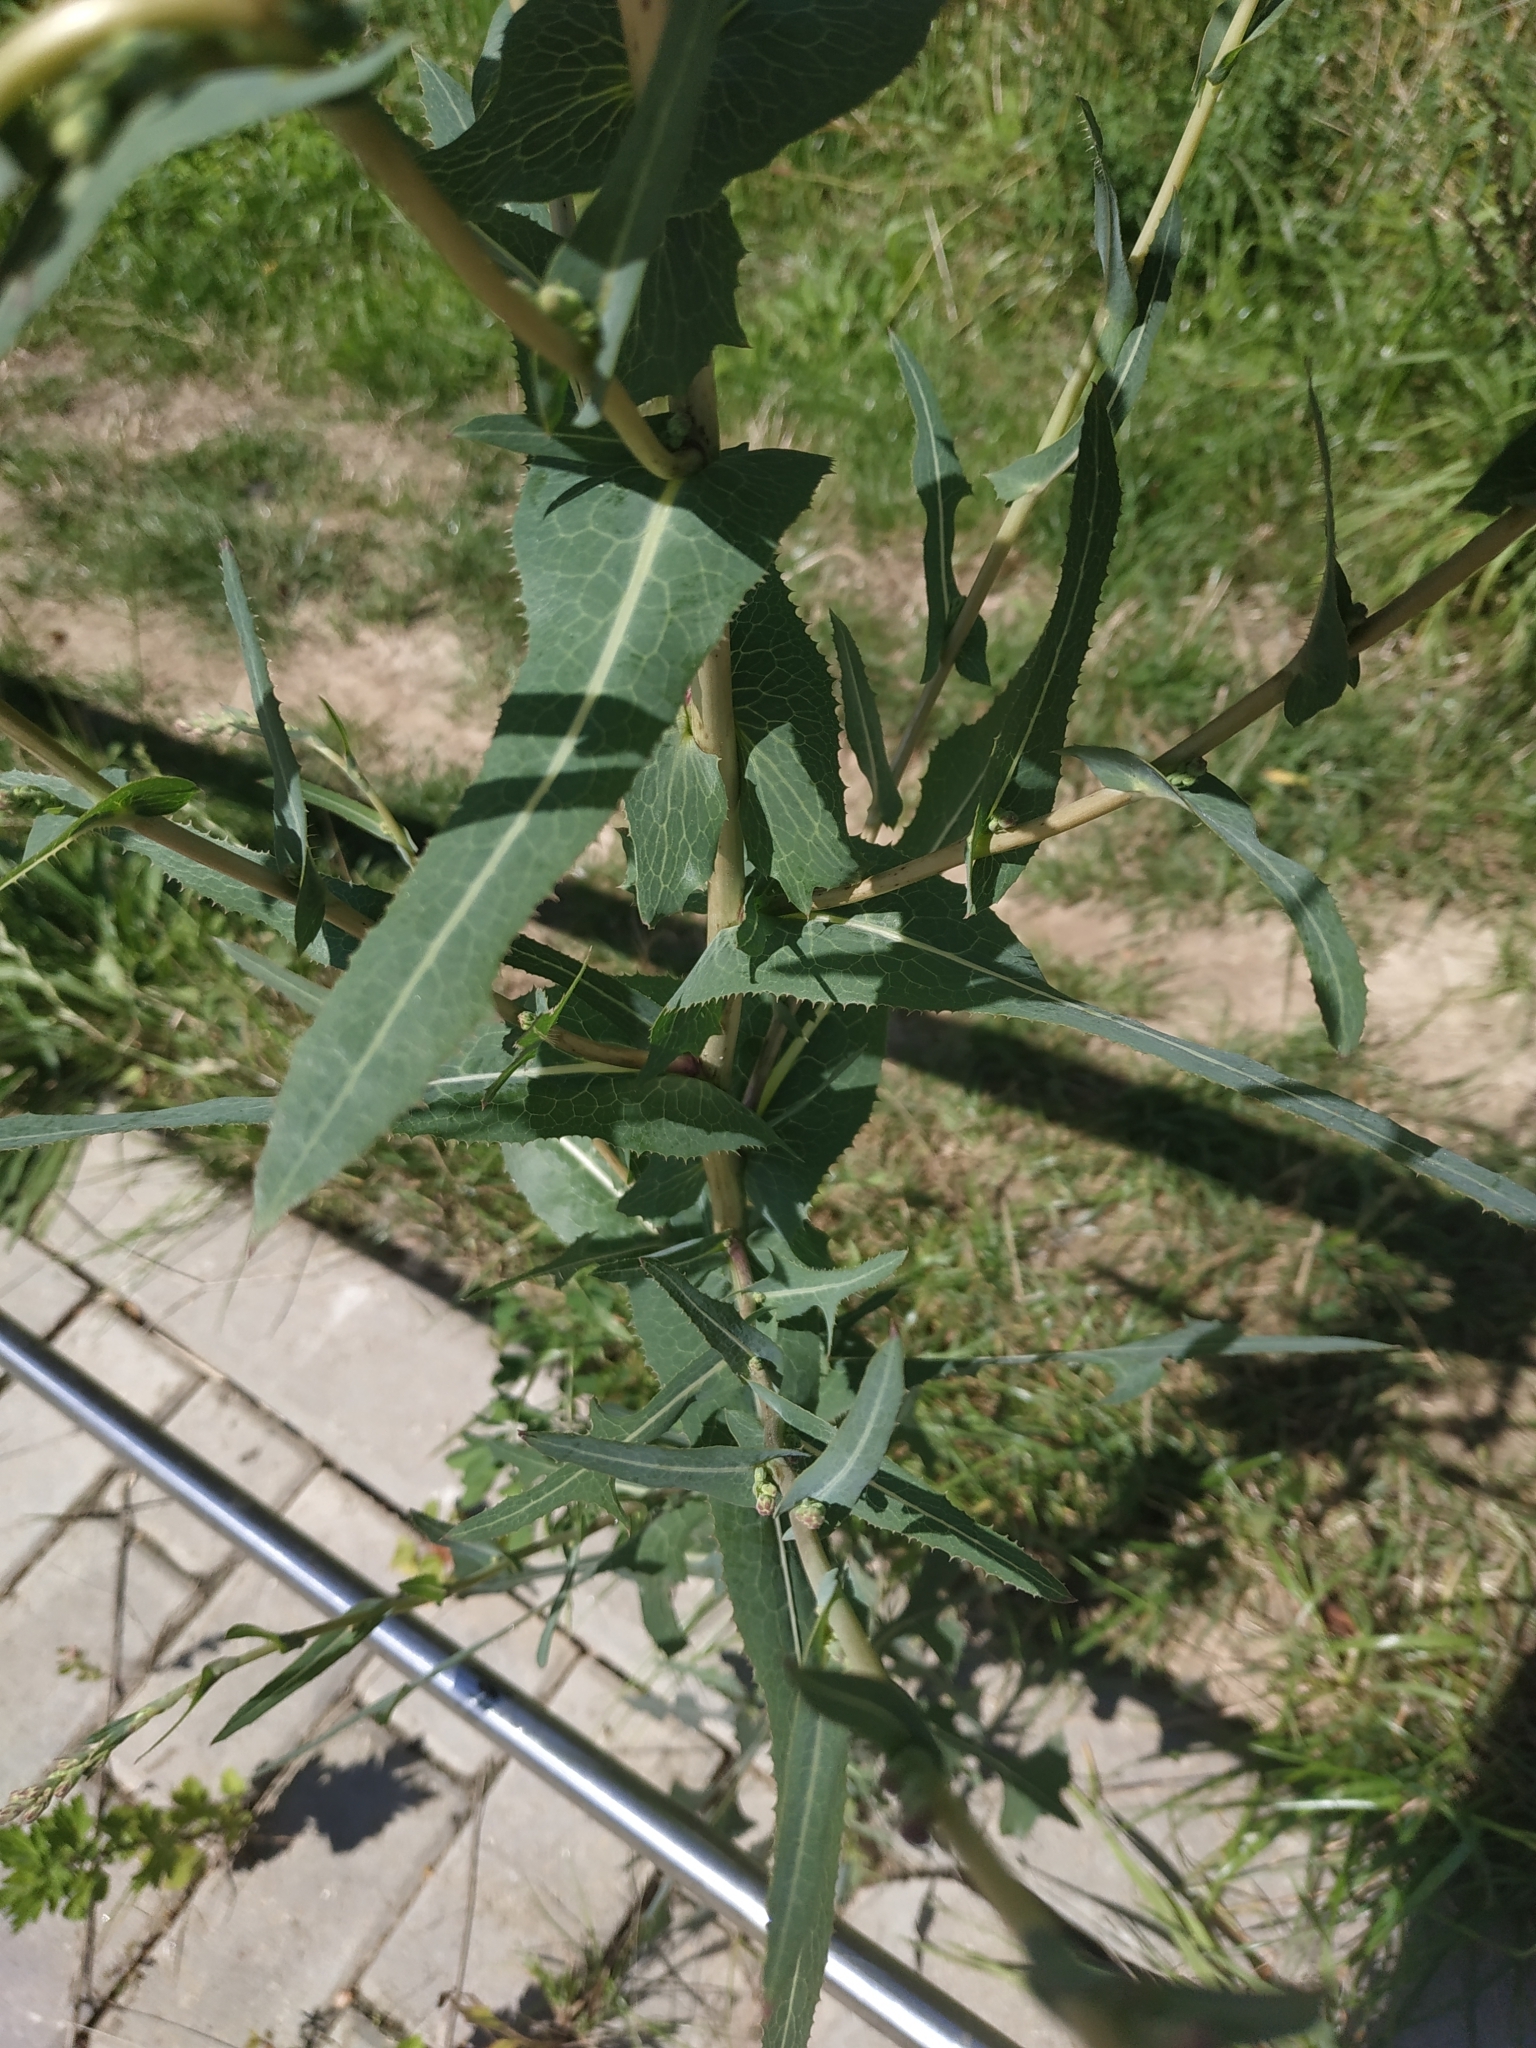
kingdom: Plantae
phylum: Tracheophyta
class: Magnoliopsida
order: Asterales
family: Asteraceae
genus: Lactuca
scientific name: Lactuca serriola
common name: Prickly lettuce
